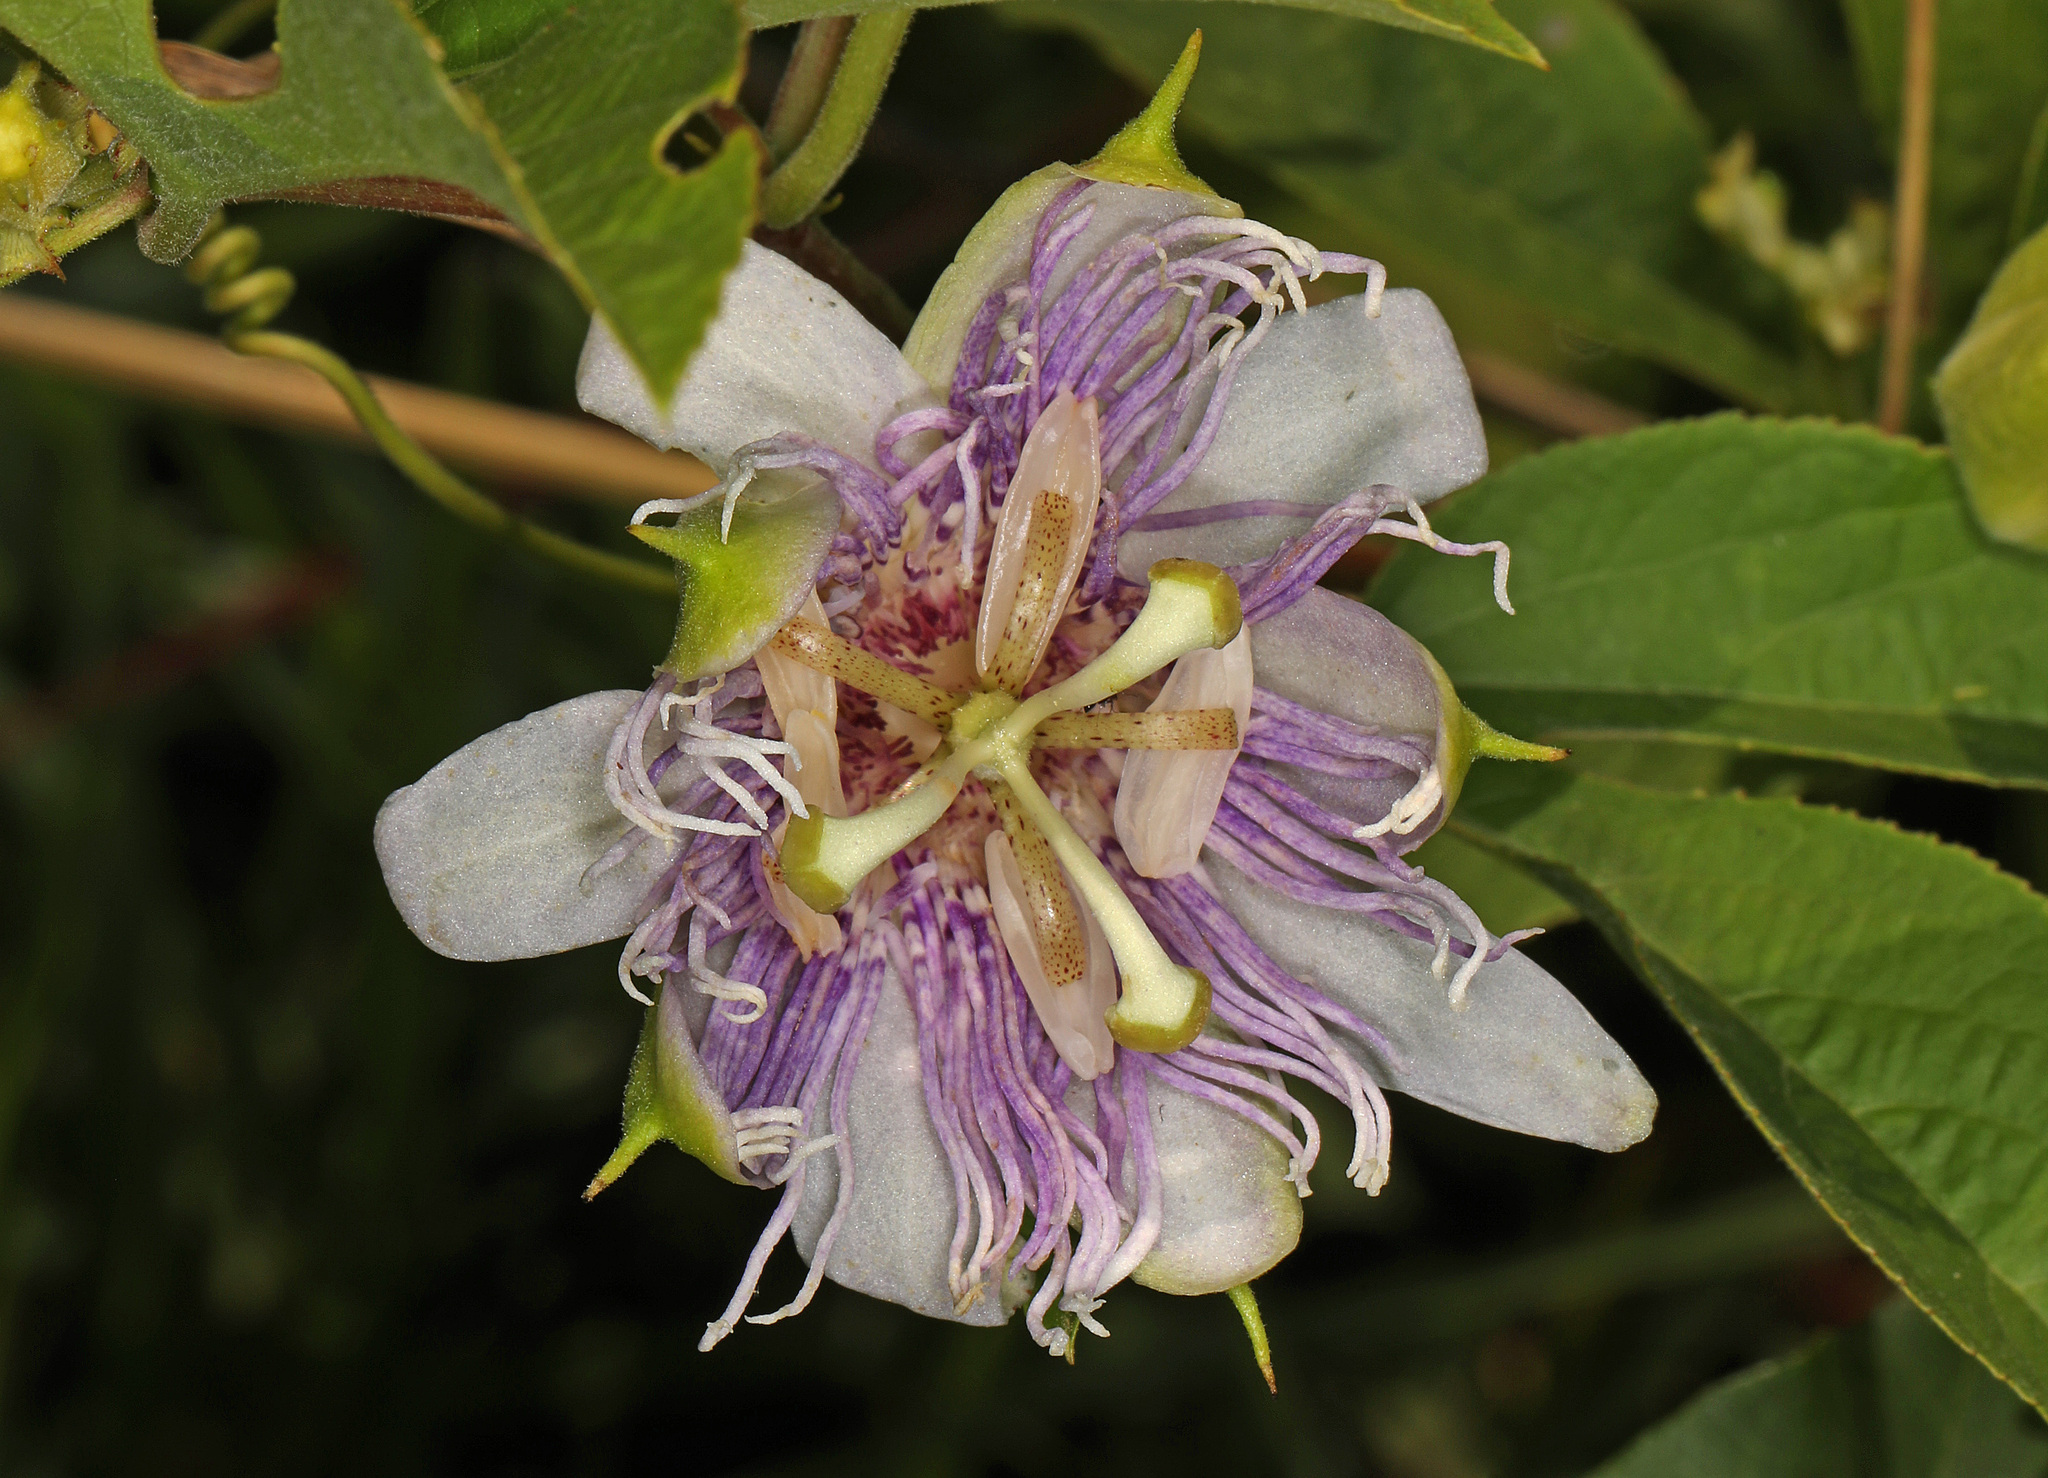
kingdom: Plantae
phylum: Tracheophyta
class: Magnoliopsida
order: Malpighiales
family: Passifloraceae
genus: Passiflora
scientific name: Passiflora incarnata
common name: Apricot-vine
